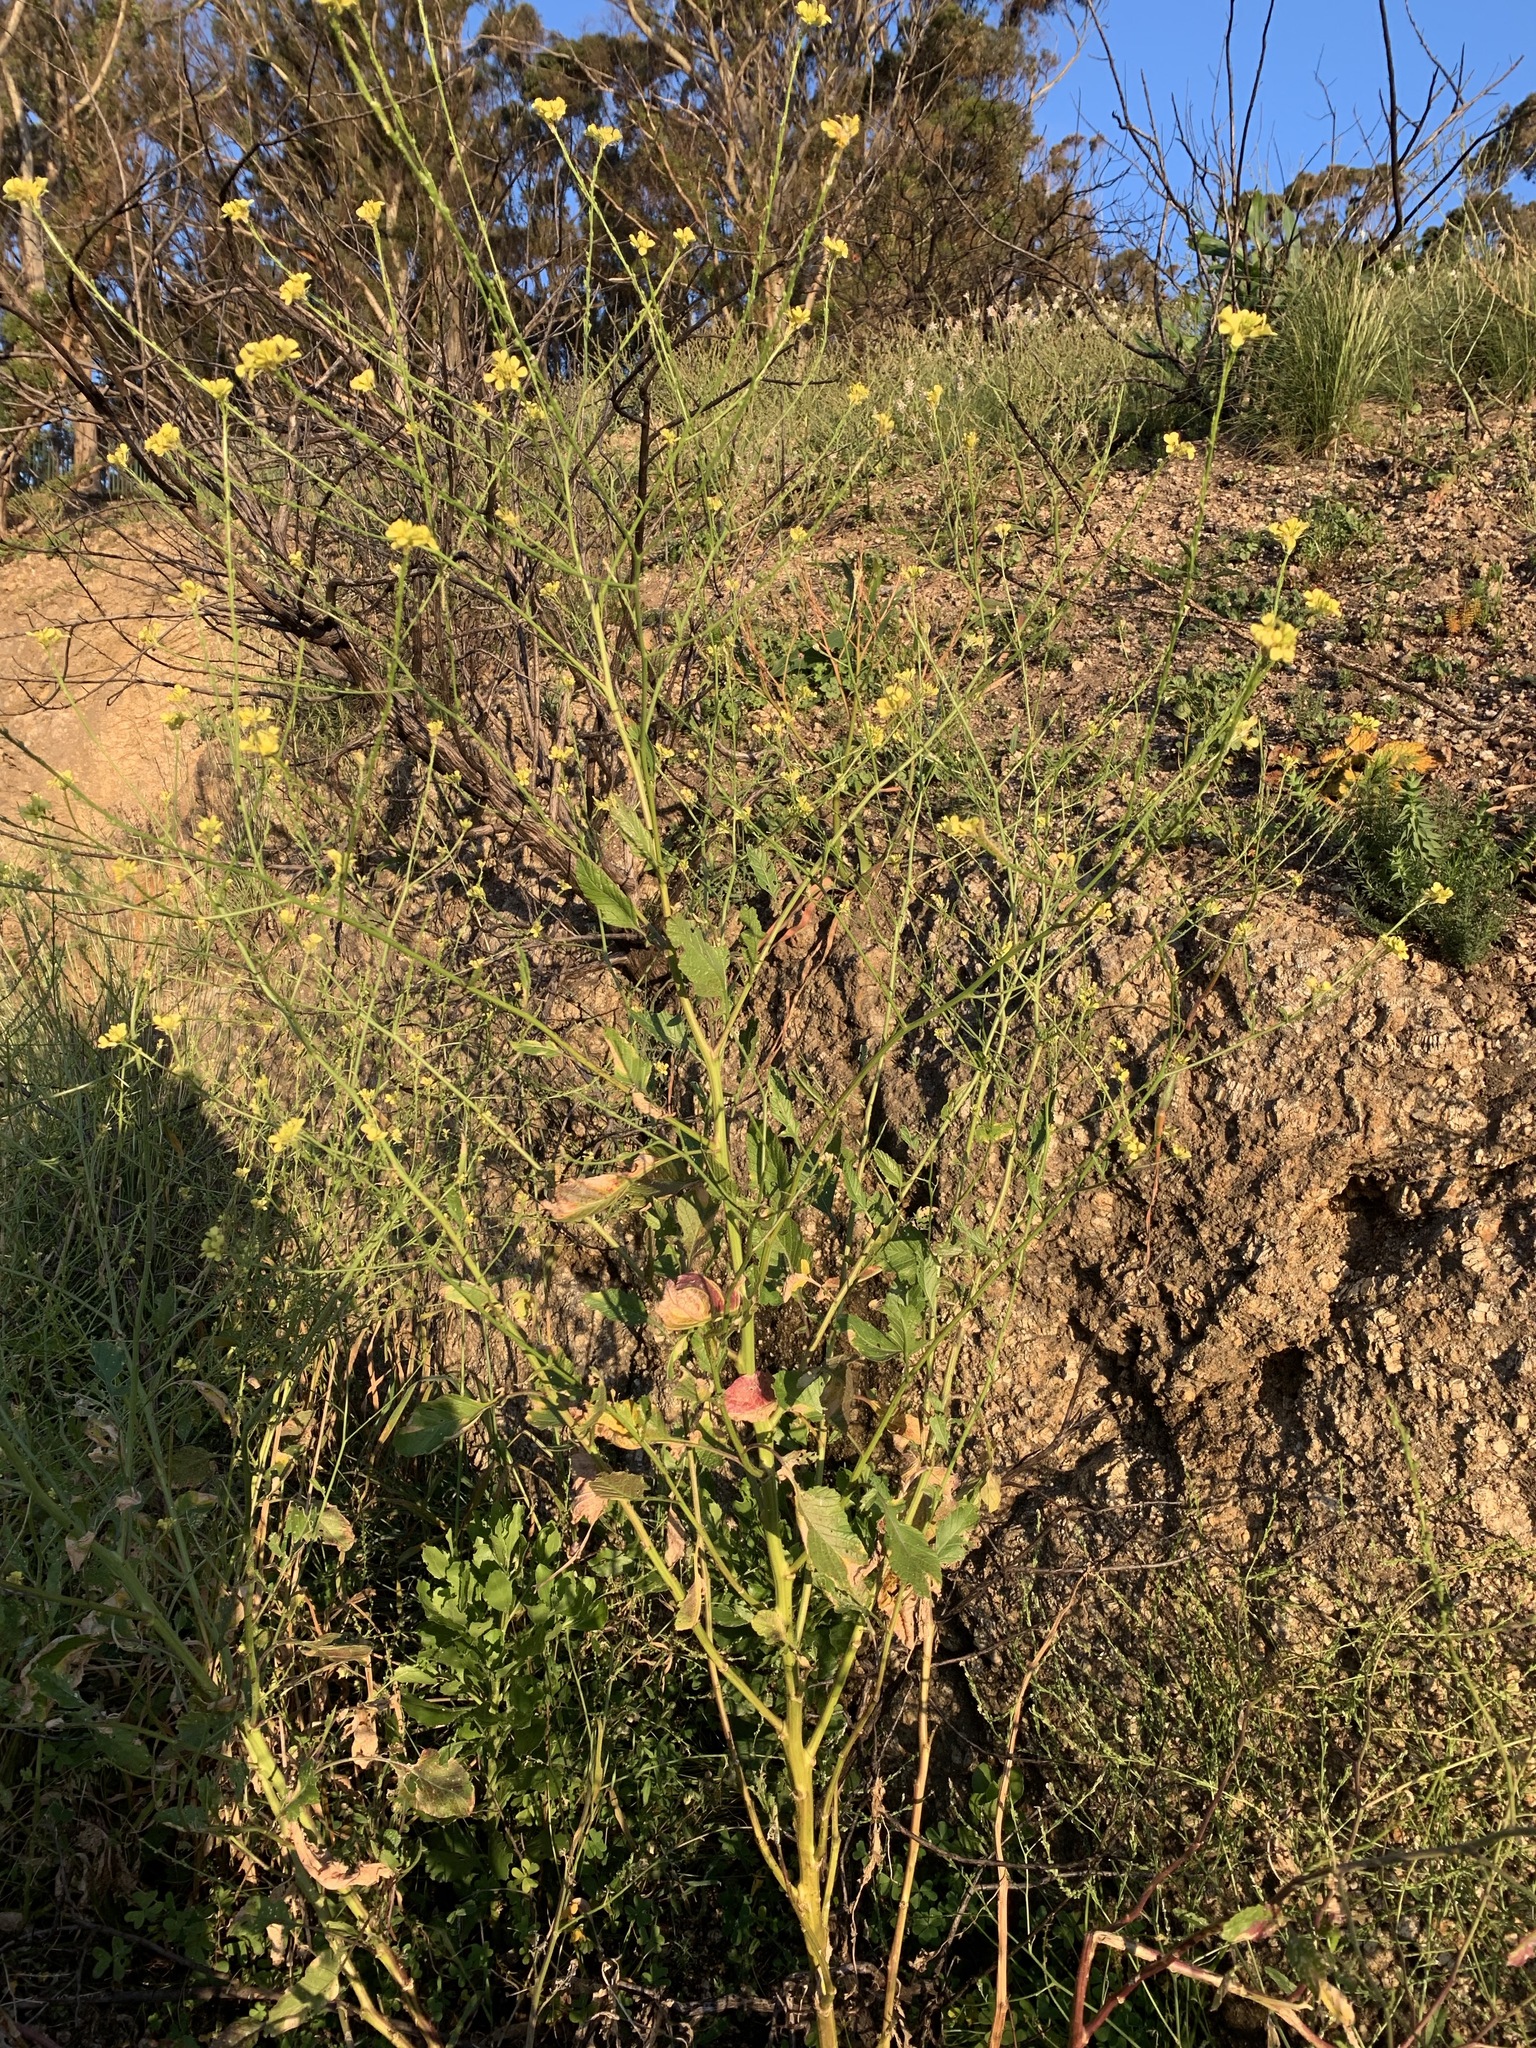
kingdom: Plantae
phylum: Tracheophyta
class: Magnoliopsida
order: Brassicales
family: Brassicaceae
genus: Rapistrum
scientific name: Rapistrum rugosum
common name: Annual bastardcabbage
